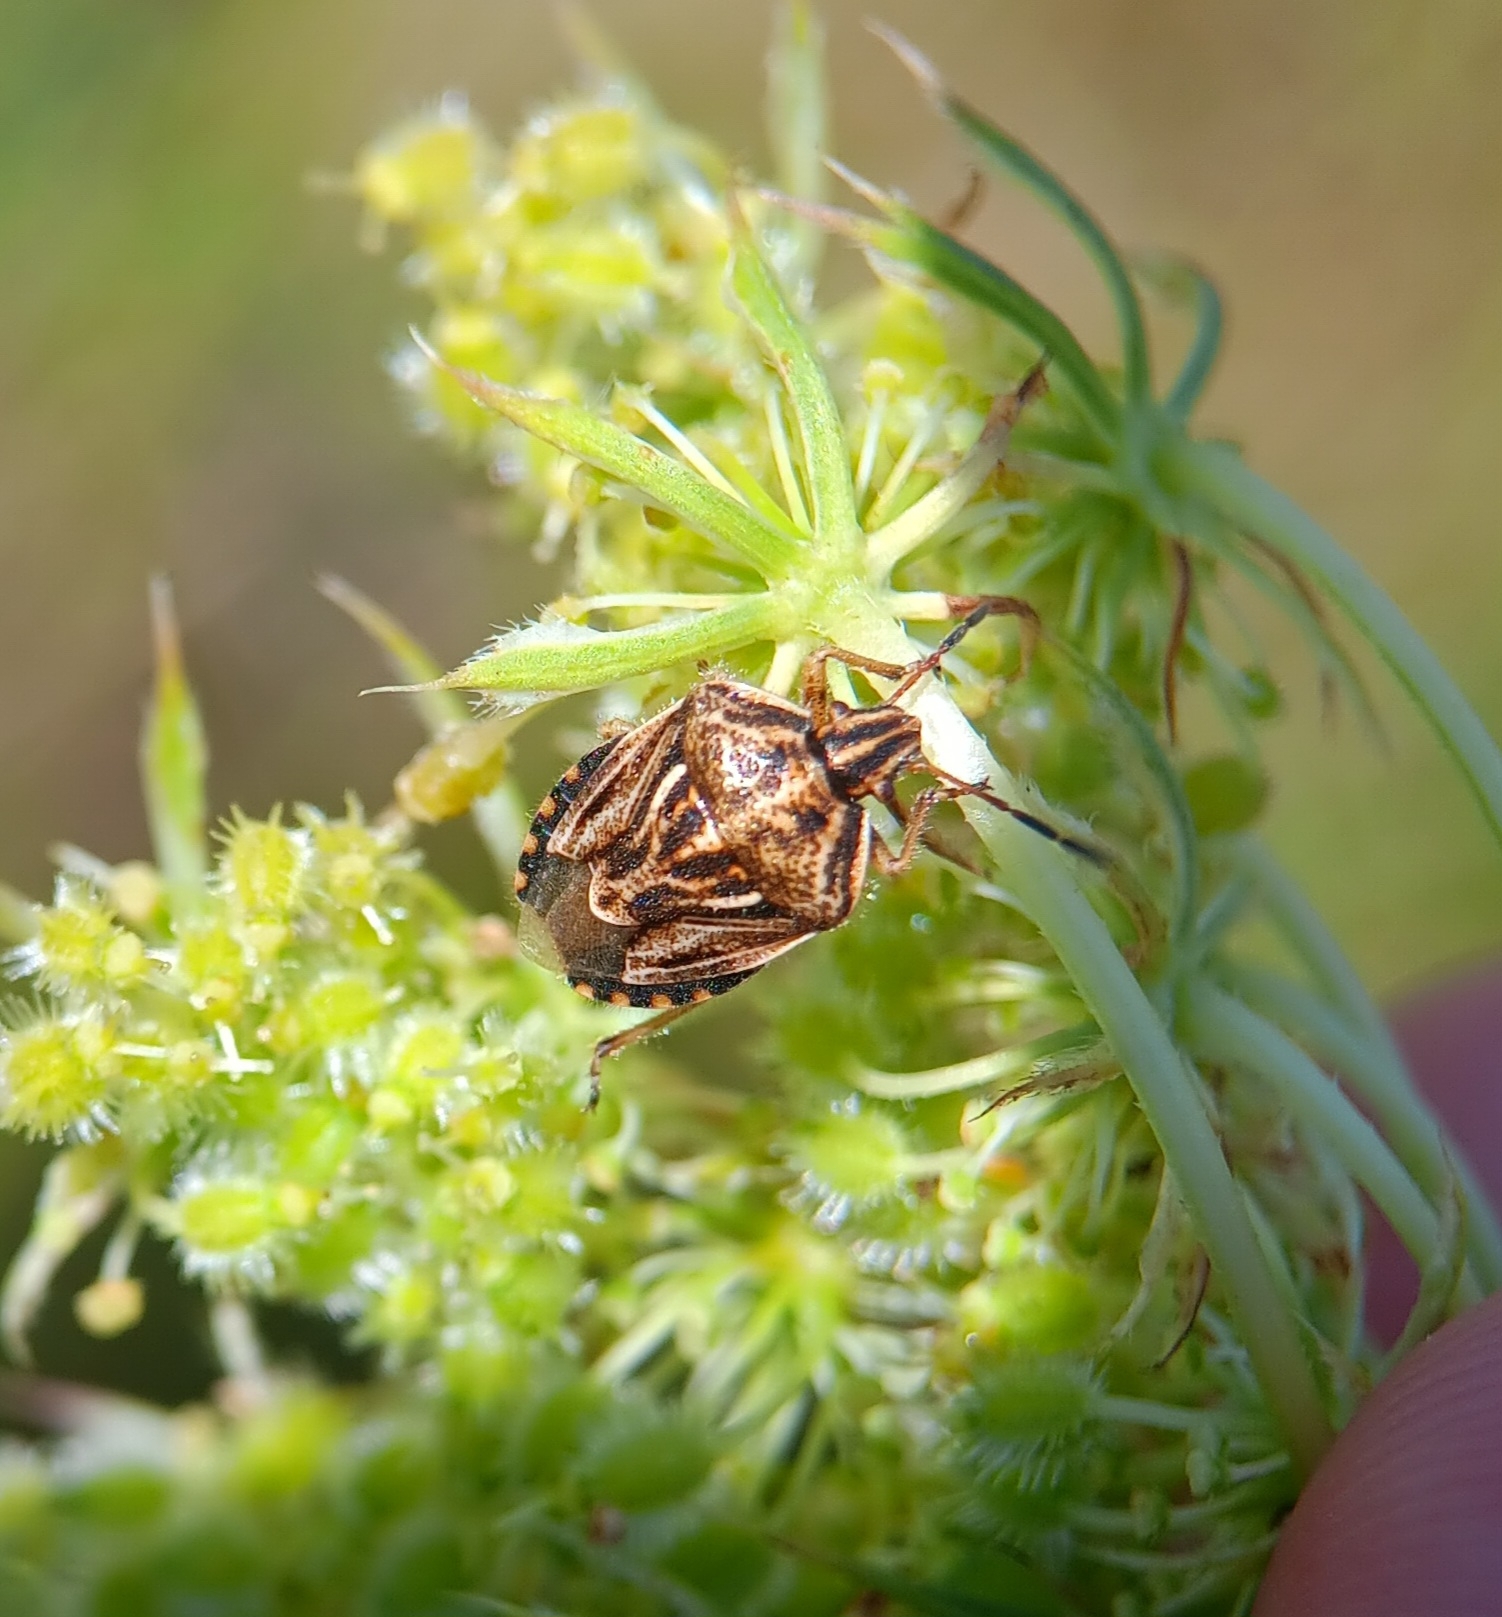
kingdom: Animalia
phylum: Arthropoda
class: Insecta
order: Hemiptera
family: Pentatomidae
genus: Trichopepla
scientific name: Trichopepla semivittata
